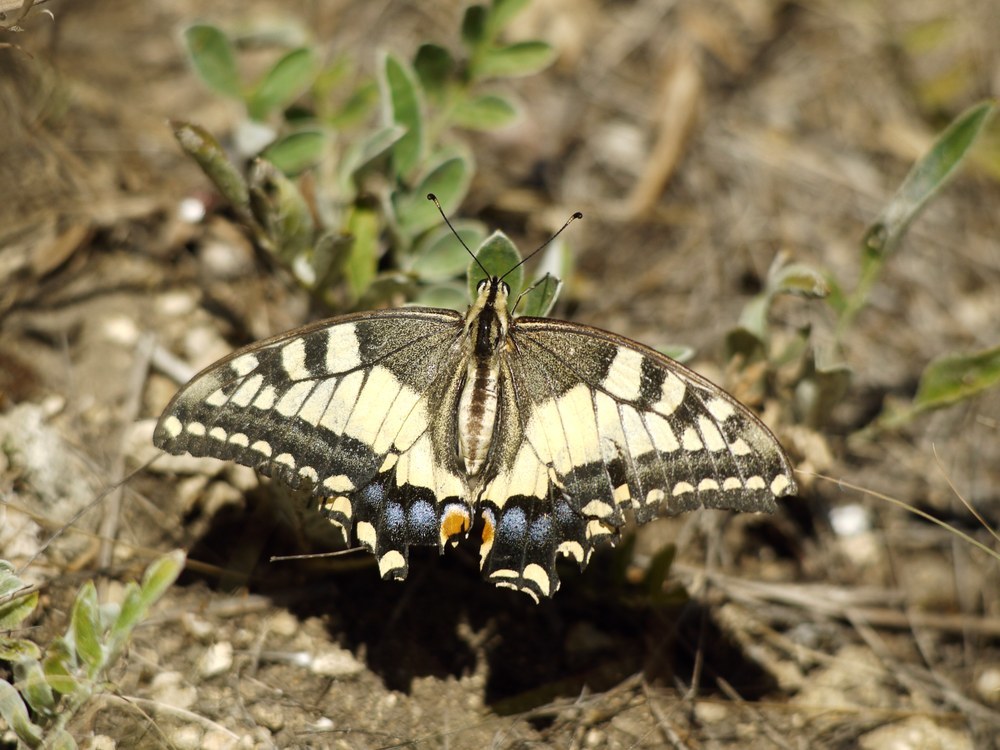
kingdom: Animalia
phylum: Arthropoda
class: Insecta
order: Lepidoptera
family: Papilionidae
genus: Papilio
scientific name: Papilio machaon
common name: Swallowtail
